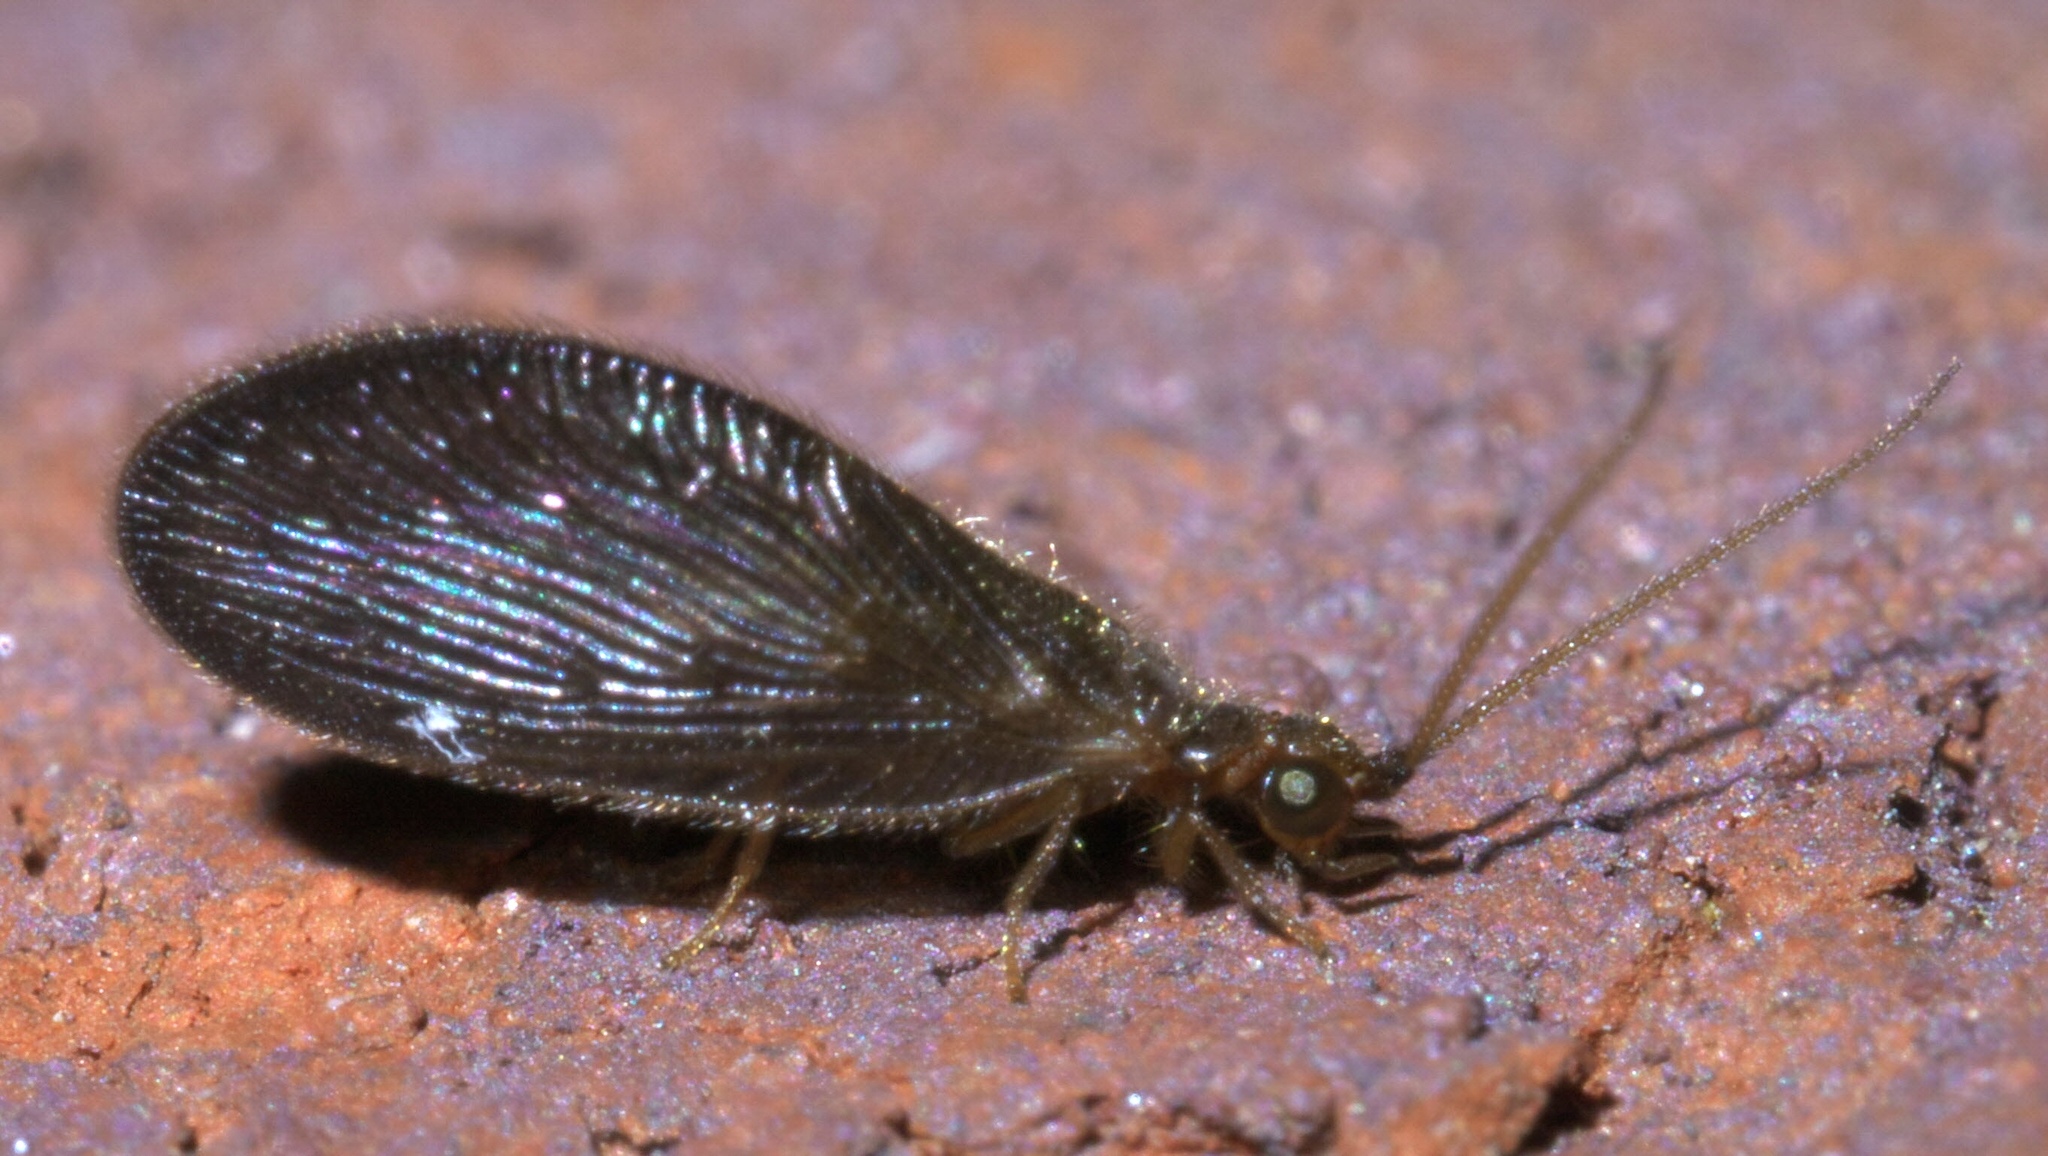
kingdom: Animalia
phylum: Arthropoda
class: Insecta
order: Neuroptera
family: Sisyridae
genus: Sisyra
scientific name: Sisyra vicaria
